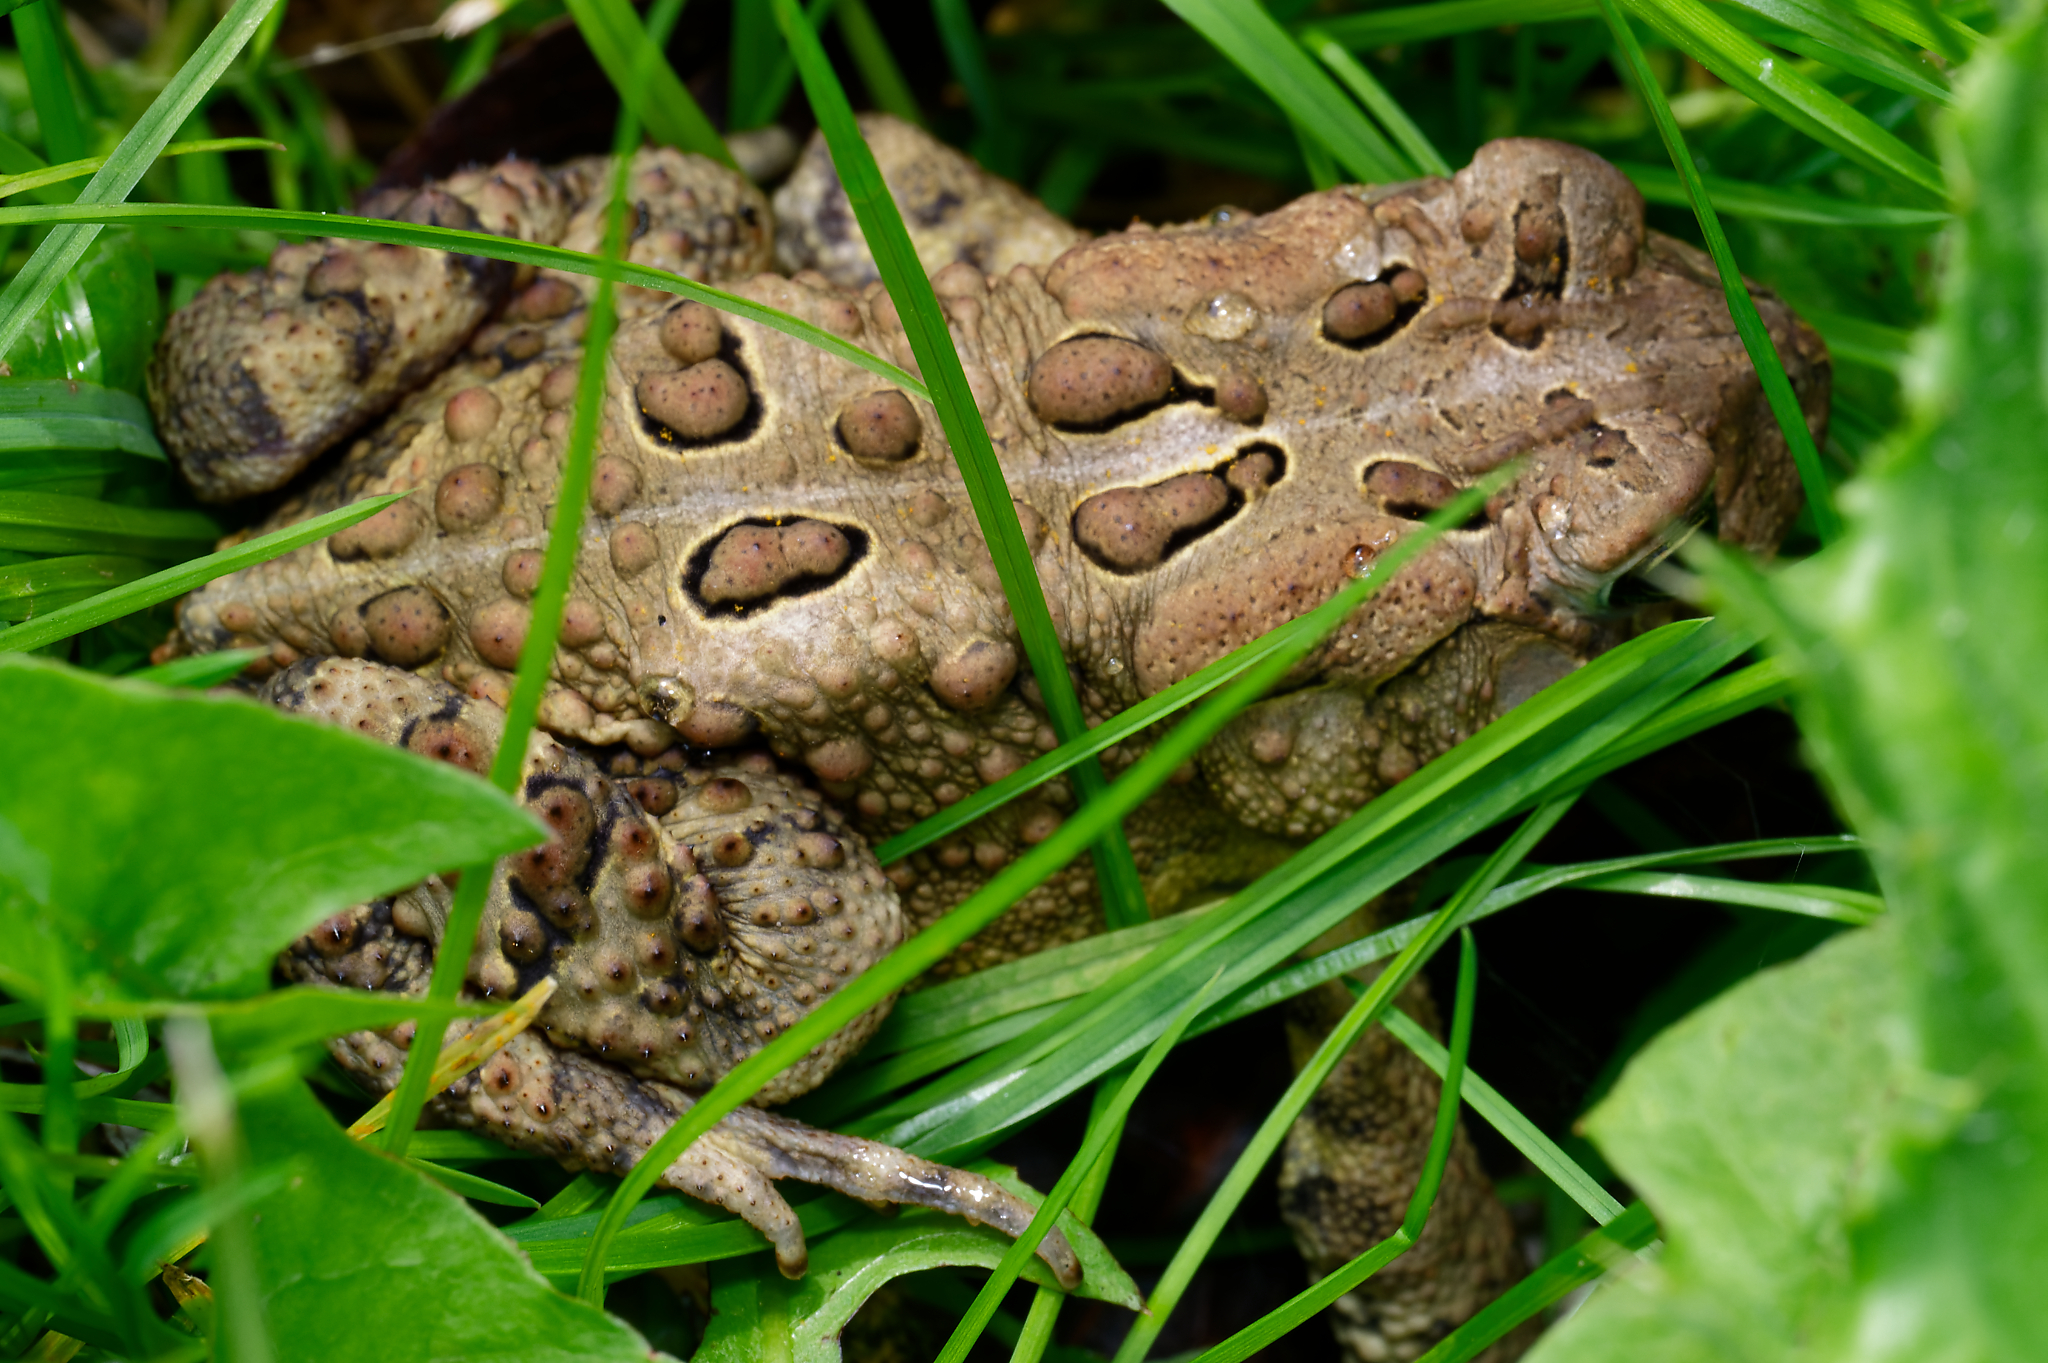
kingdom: Animalia
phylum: Chordata
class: Amphibia
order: Anura
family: Bufonidae
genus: Anaxyrus
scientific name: Anaxyrus americanus
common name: American toad
